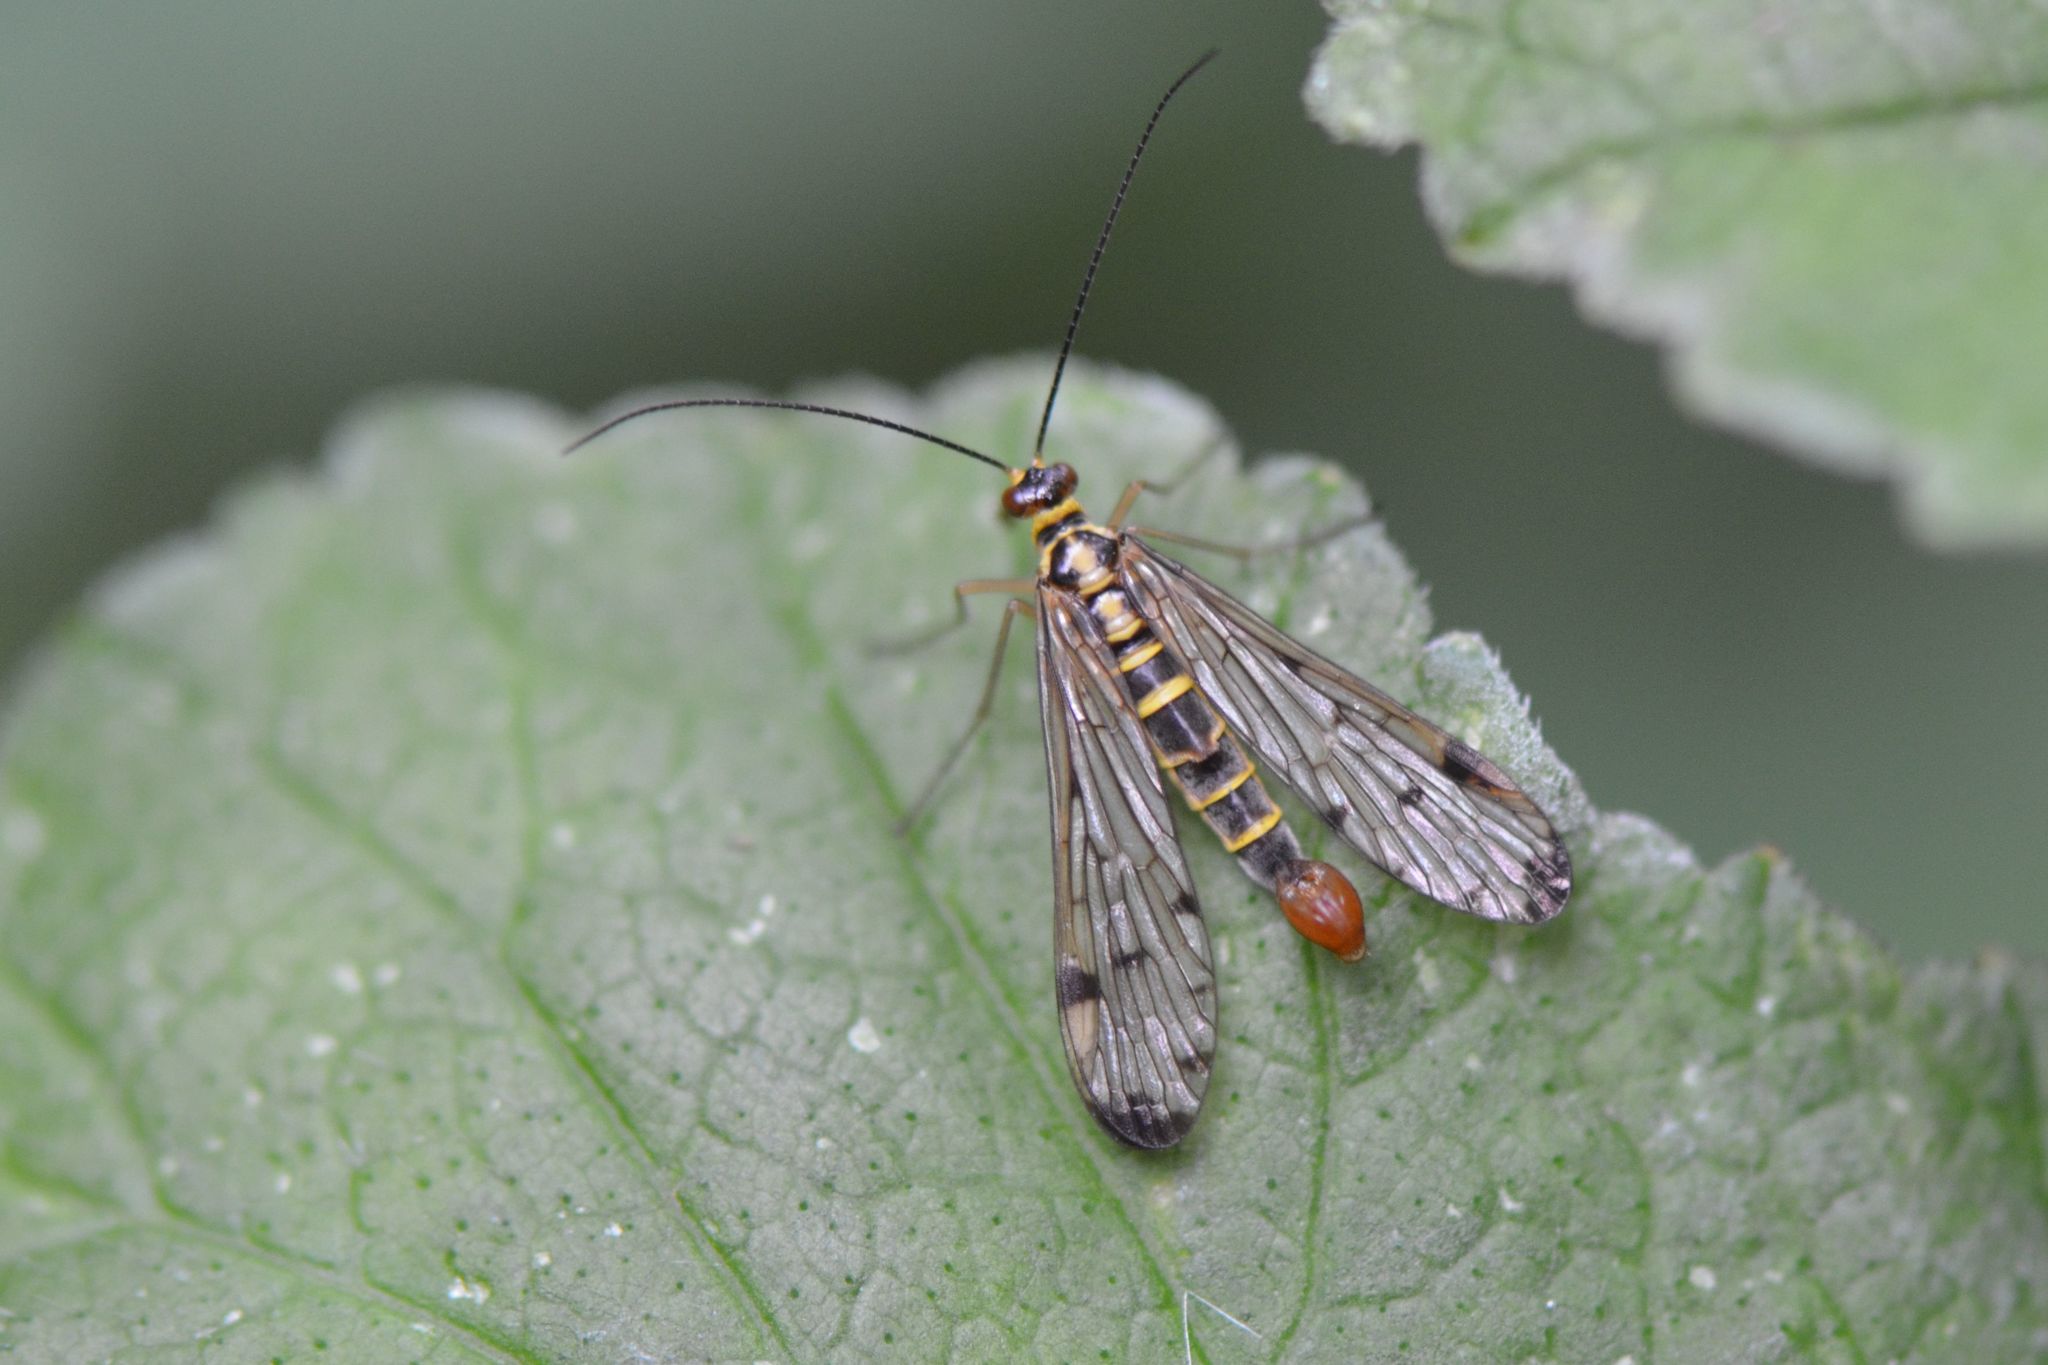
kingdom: Animalia
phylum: Arthropoda
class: Insecta
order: Mecoptera
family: Panorpidae
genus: Panorpa
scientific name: Panorpa germanica
